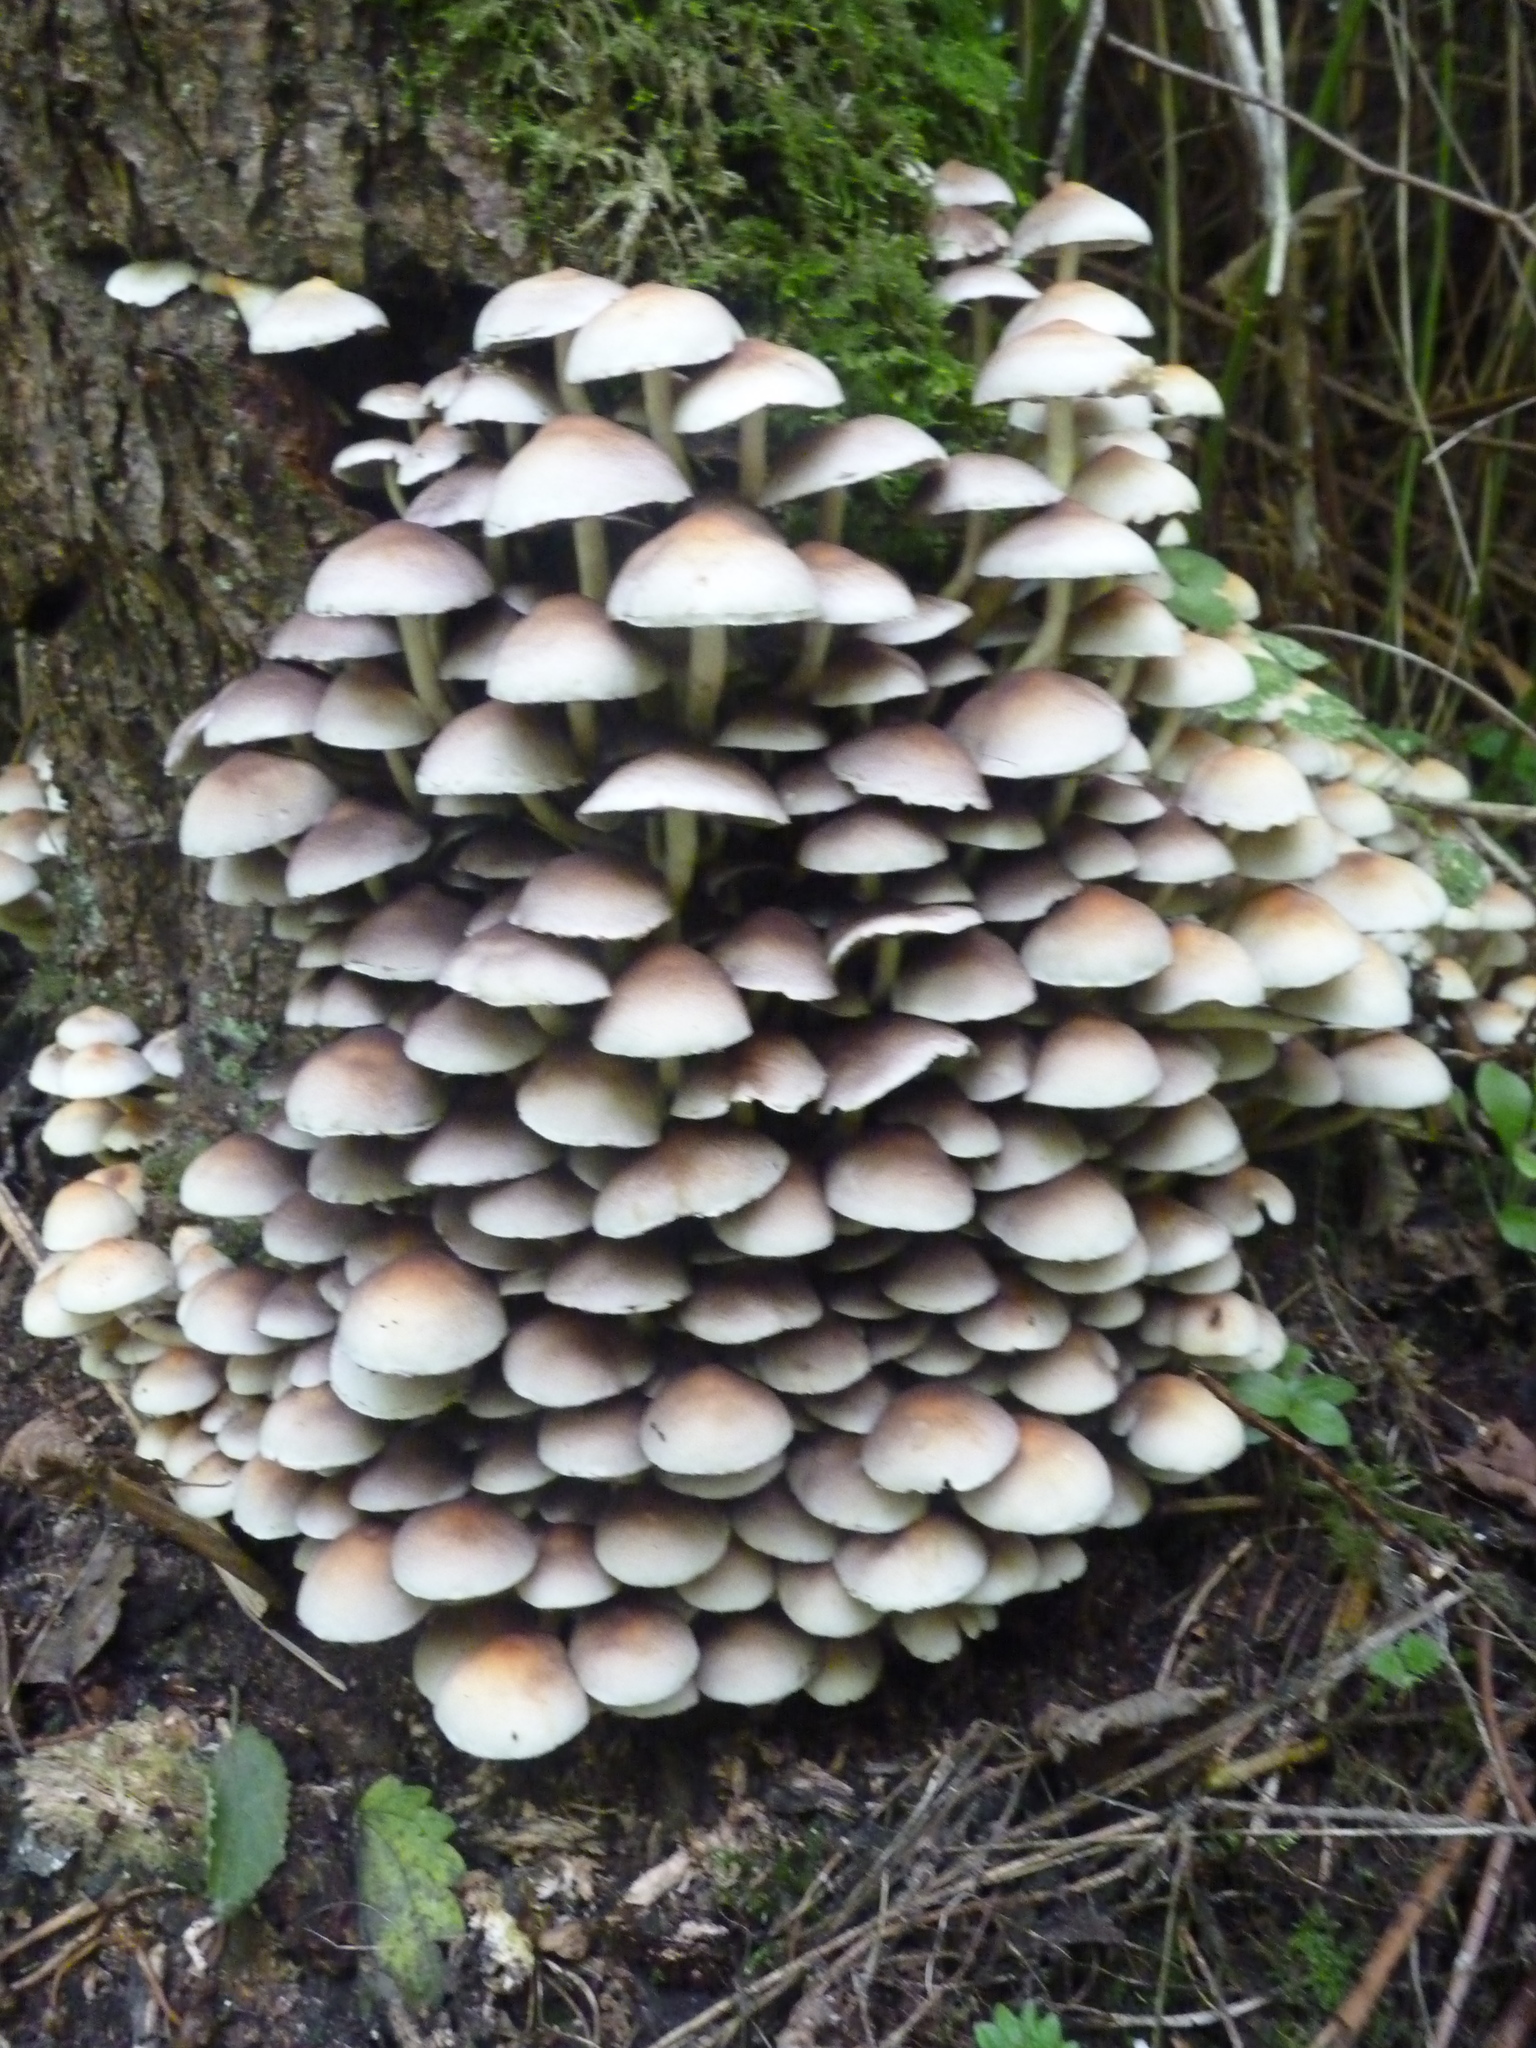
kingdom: Fungi
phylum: Basidiomycota
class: Agaricomycetes
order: Agaricales
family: Strophariaceae
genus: Hypholoma
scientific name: Hypholoma fasciculare
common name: Sulphur tuft
